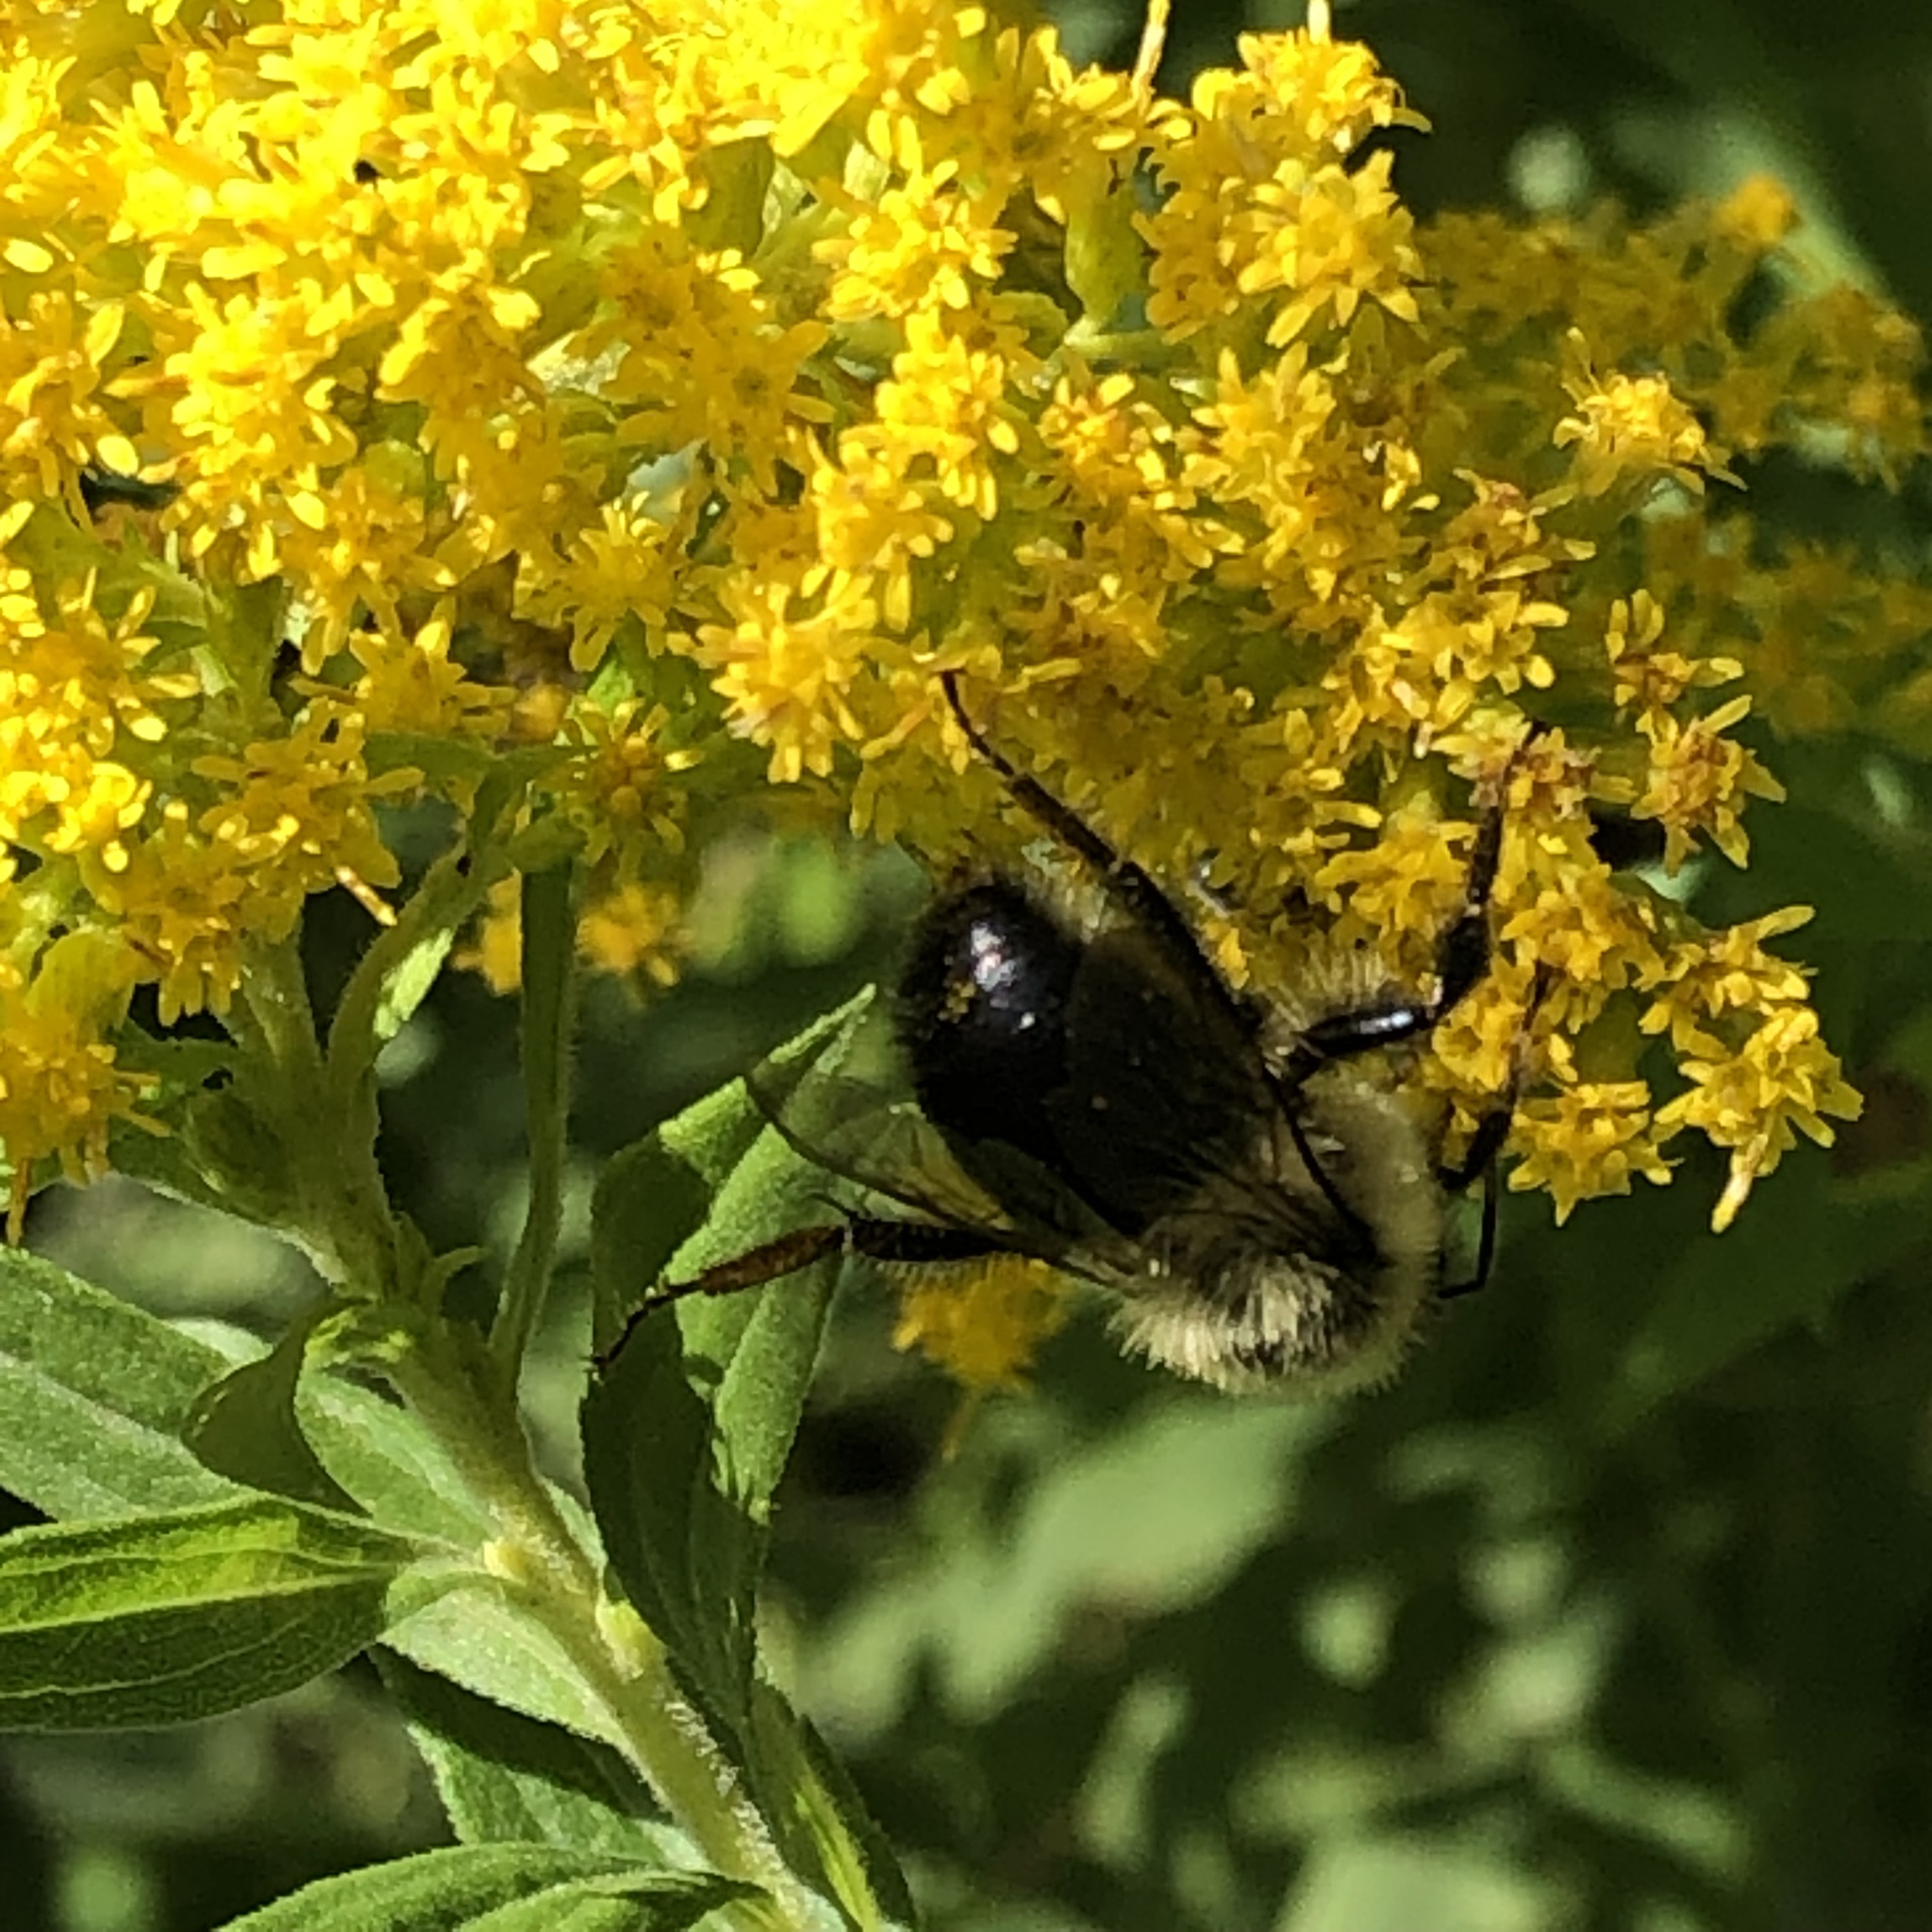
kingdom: Animalia
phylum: Arthropoda
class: Insecta
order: Hymenoptera
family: Apidae
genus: Bombus
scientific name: Bombus impatiens
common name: Common eastern bumble bee
